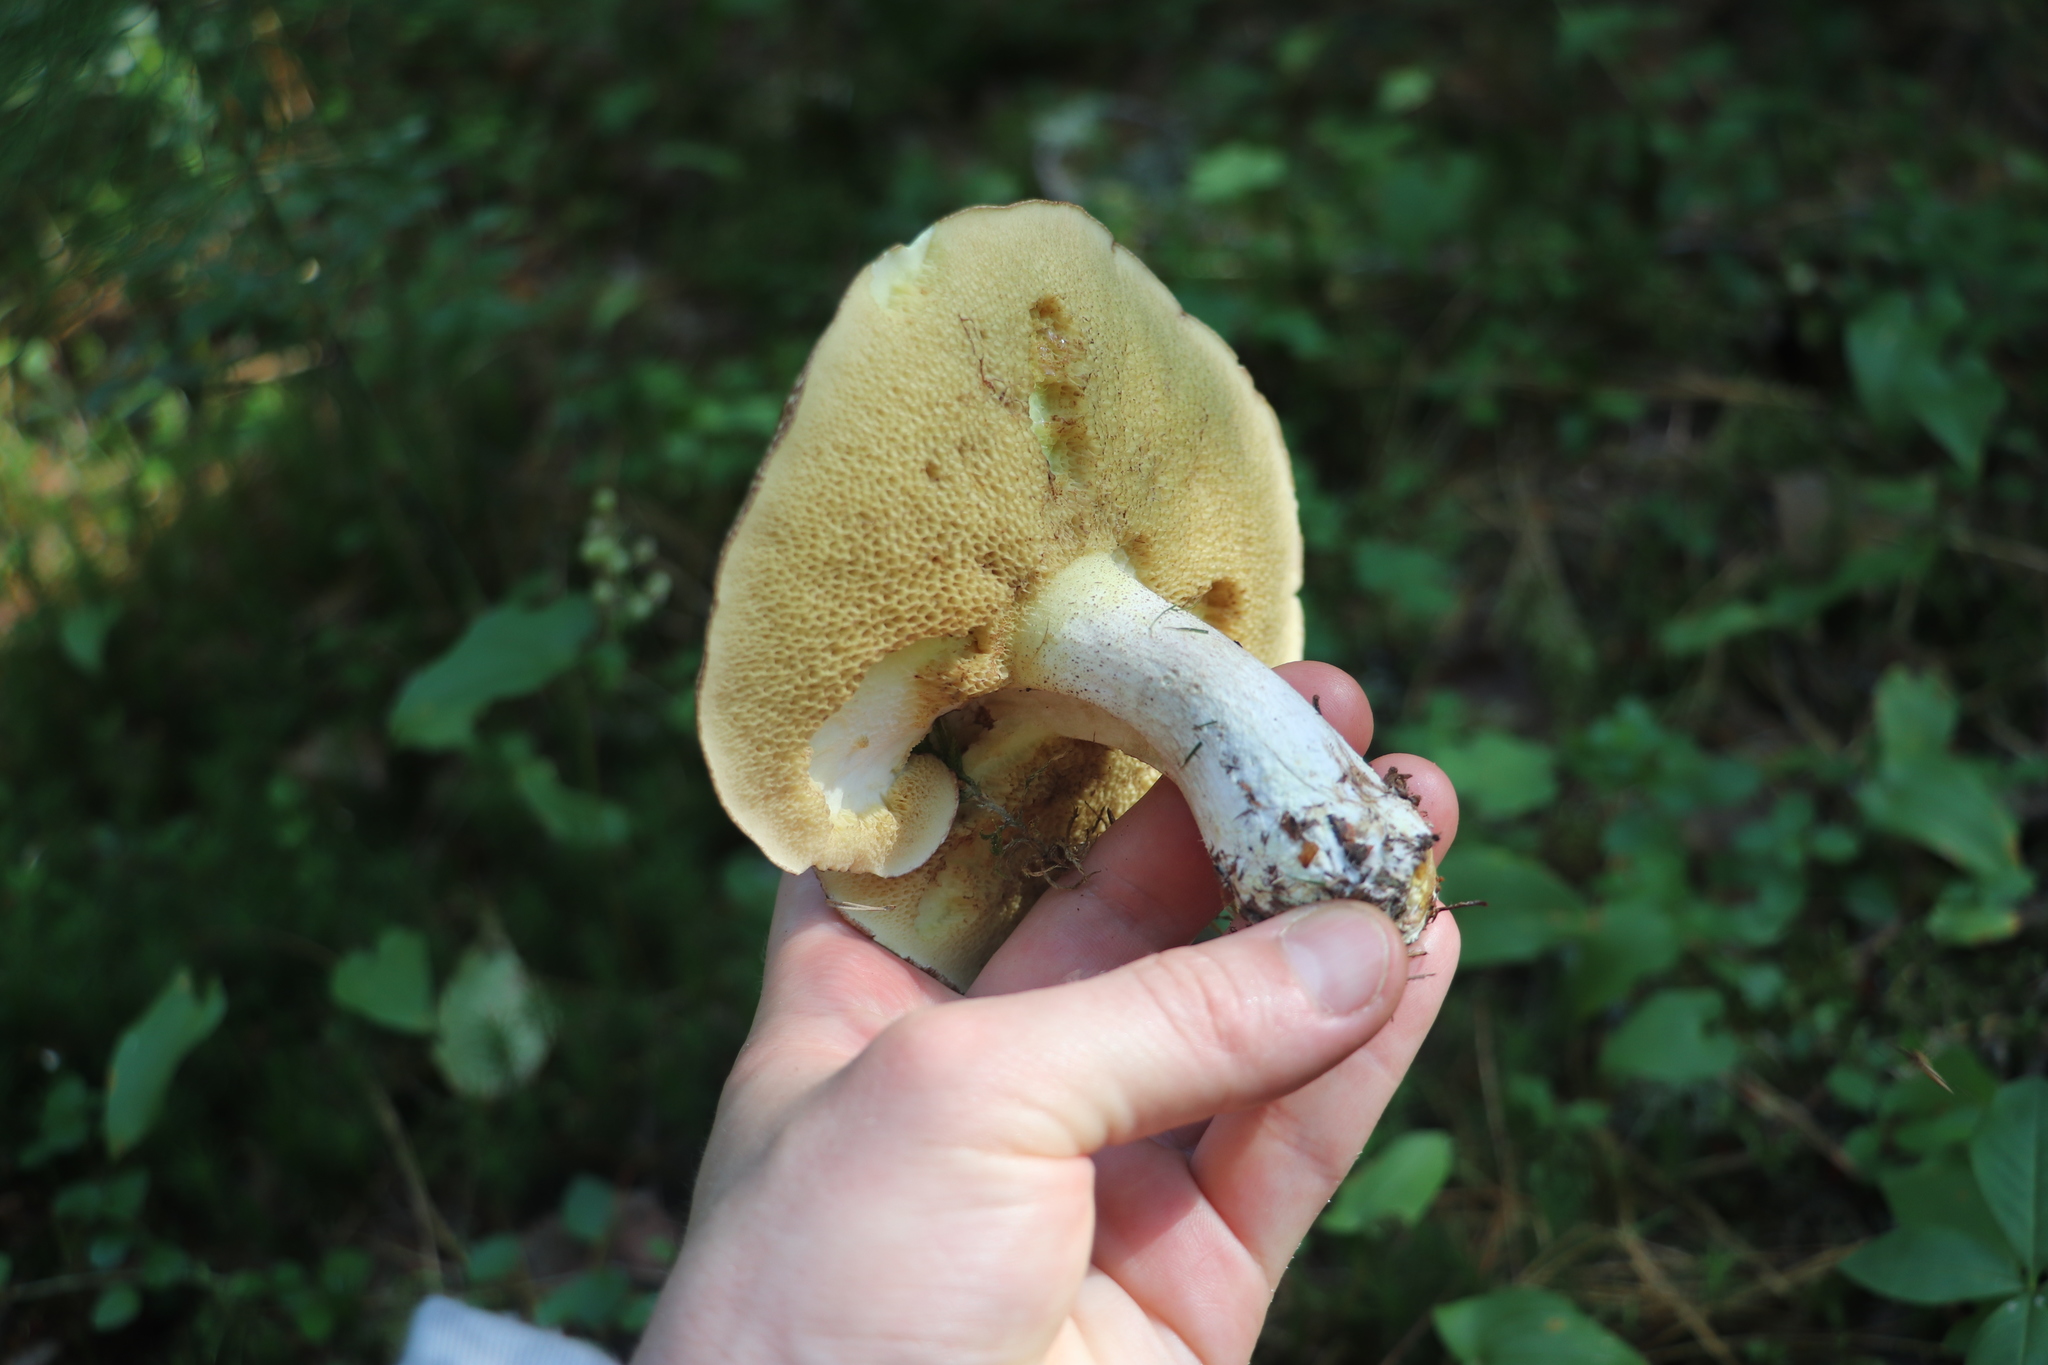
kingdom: Fungi
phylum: Basidiomycota
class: Agaricomycetes
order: Boletales
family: Suillaceae
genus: Suillus
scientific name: Suillus placidus
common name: Slippery white bolete
